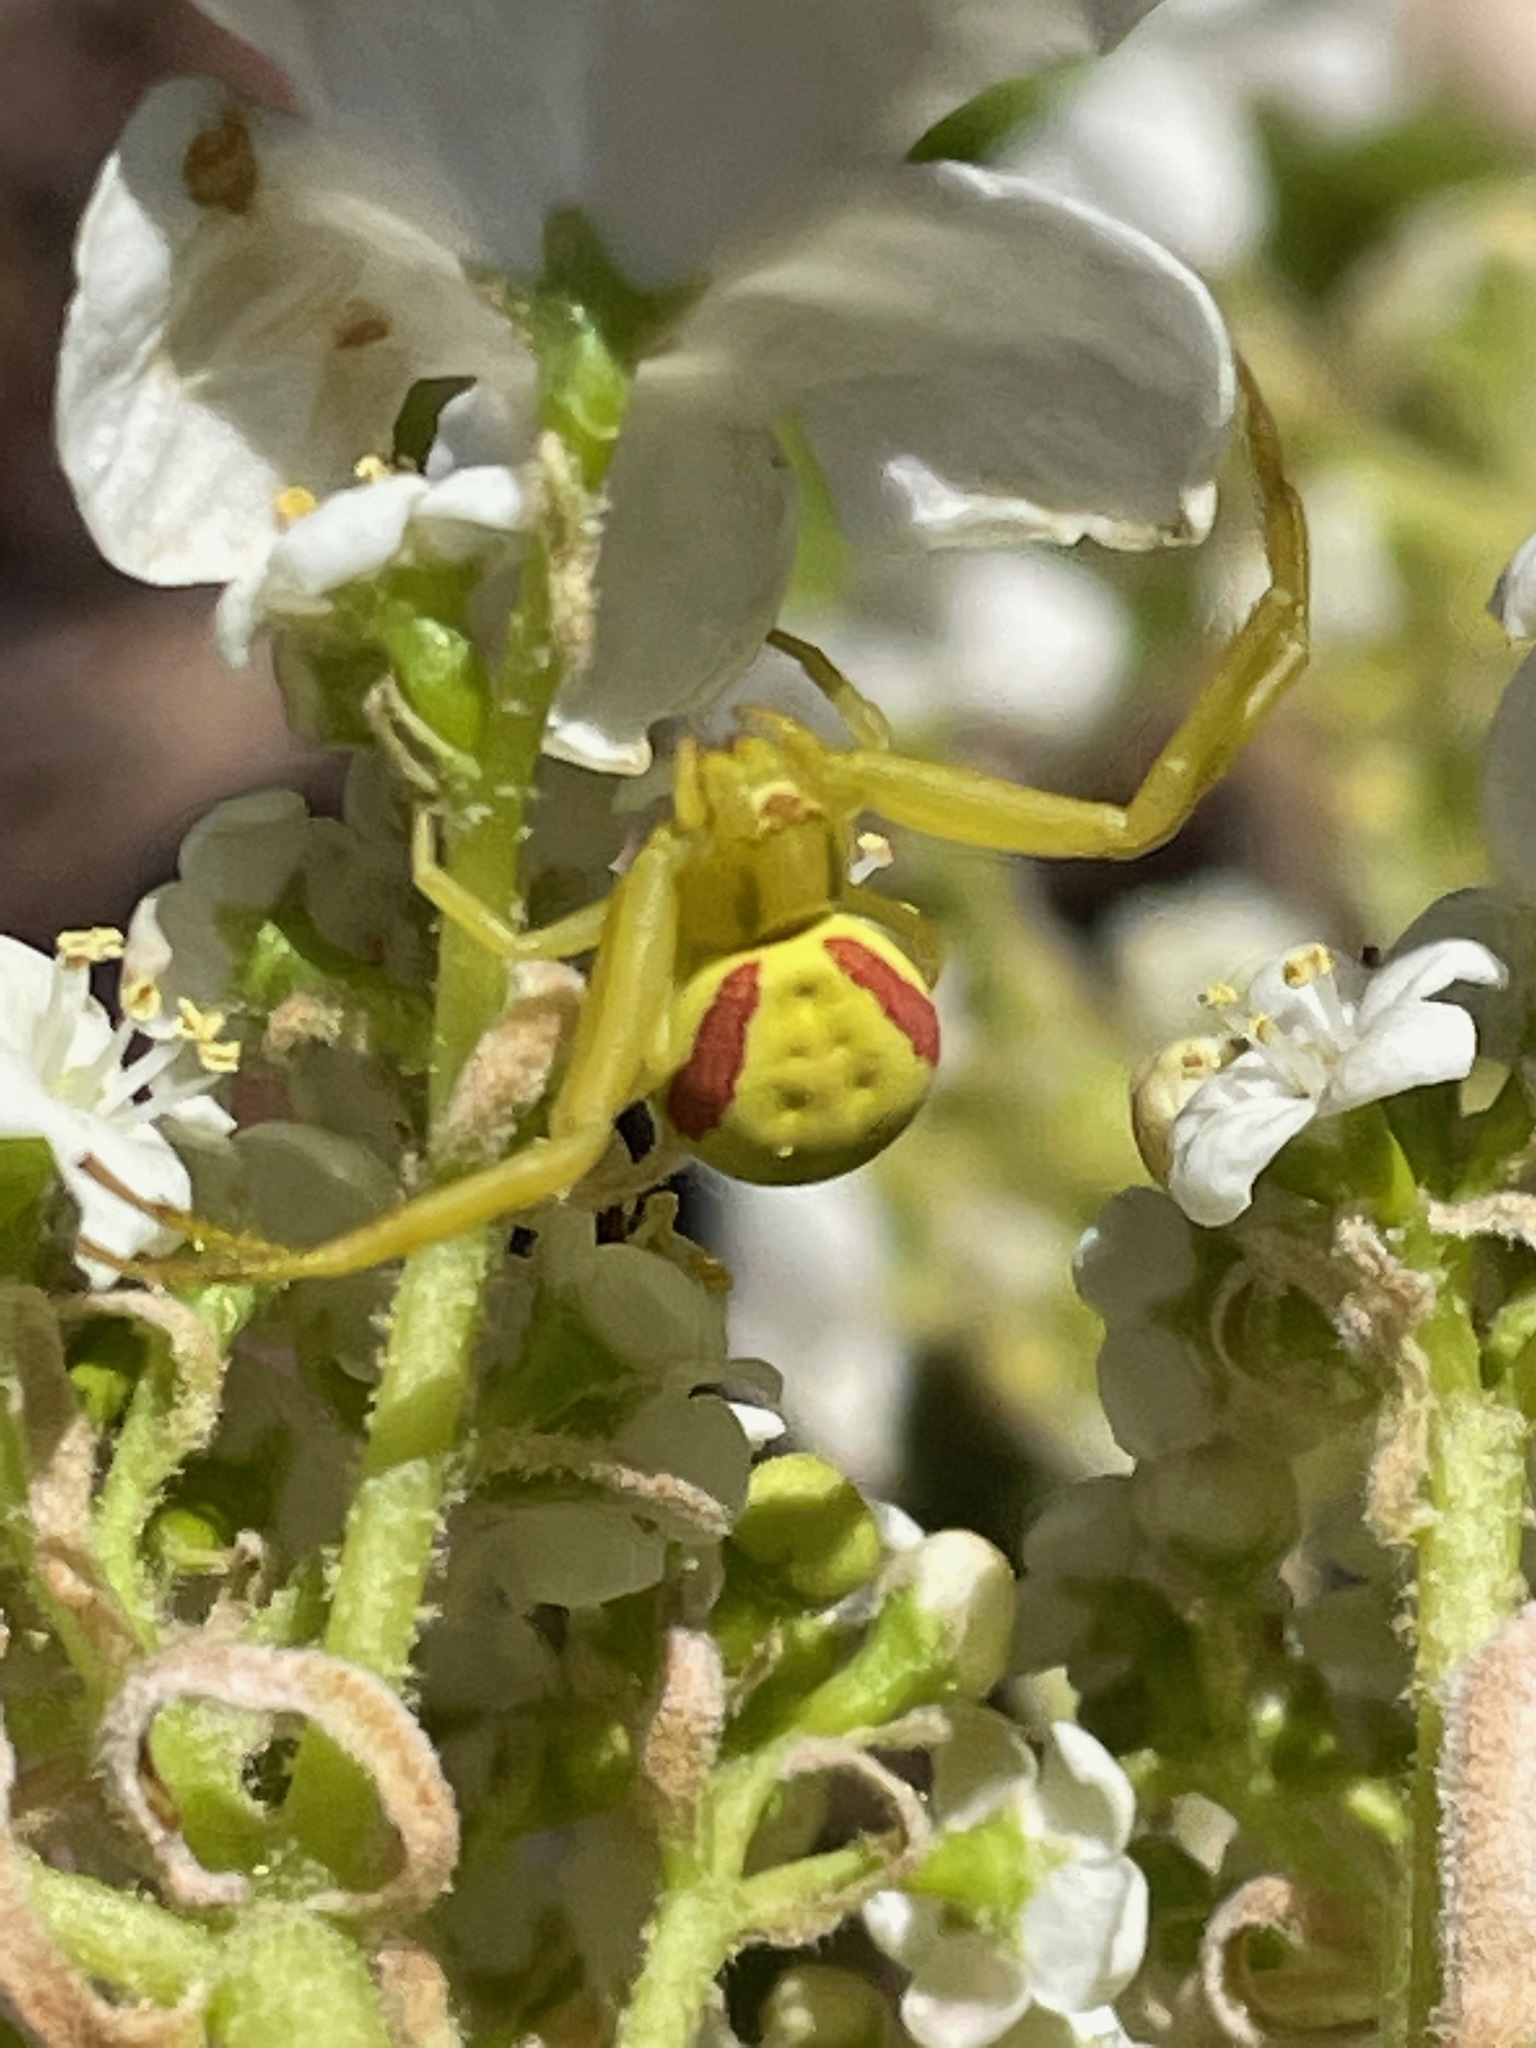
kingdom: Animalia
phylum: Arthropoda
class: Arachnida
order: Araneae
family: Thomisidae
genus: Misumena
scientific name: Misumena vatia
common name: Goldenrod crab spider
